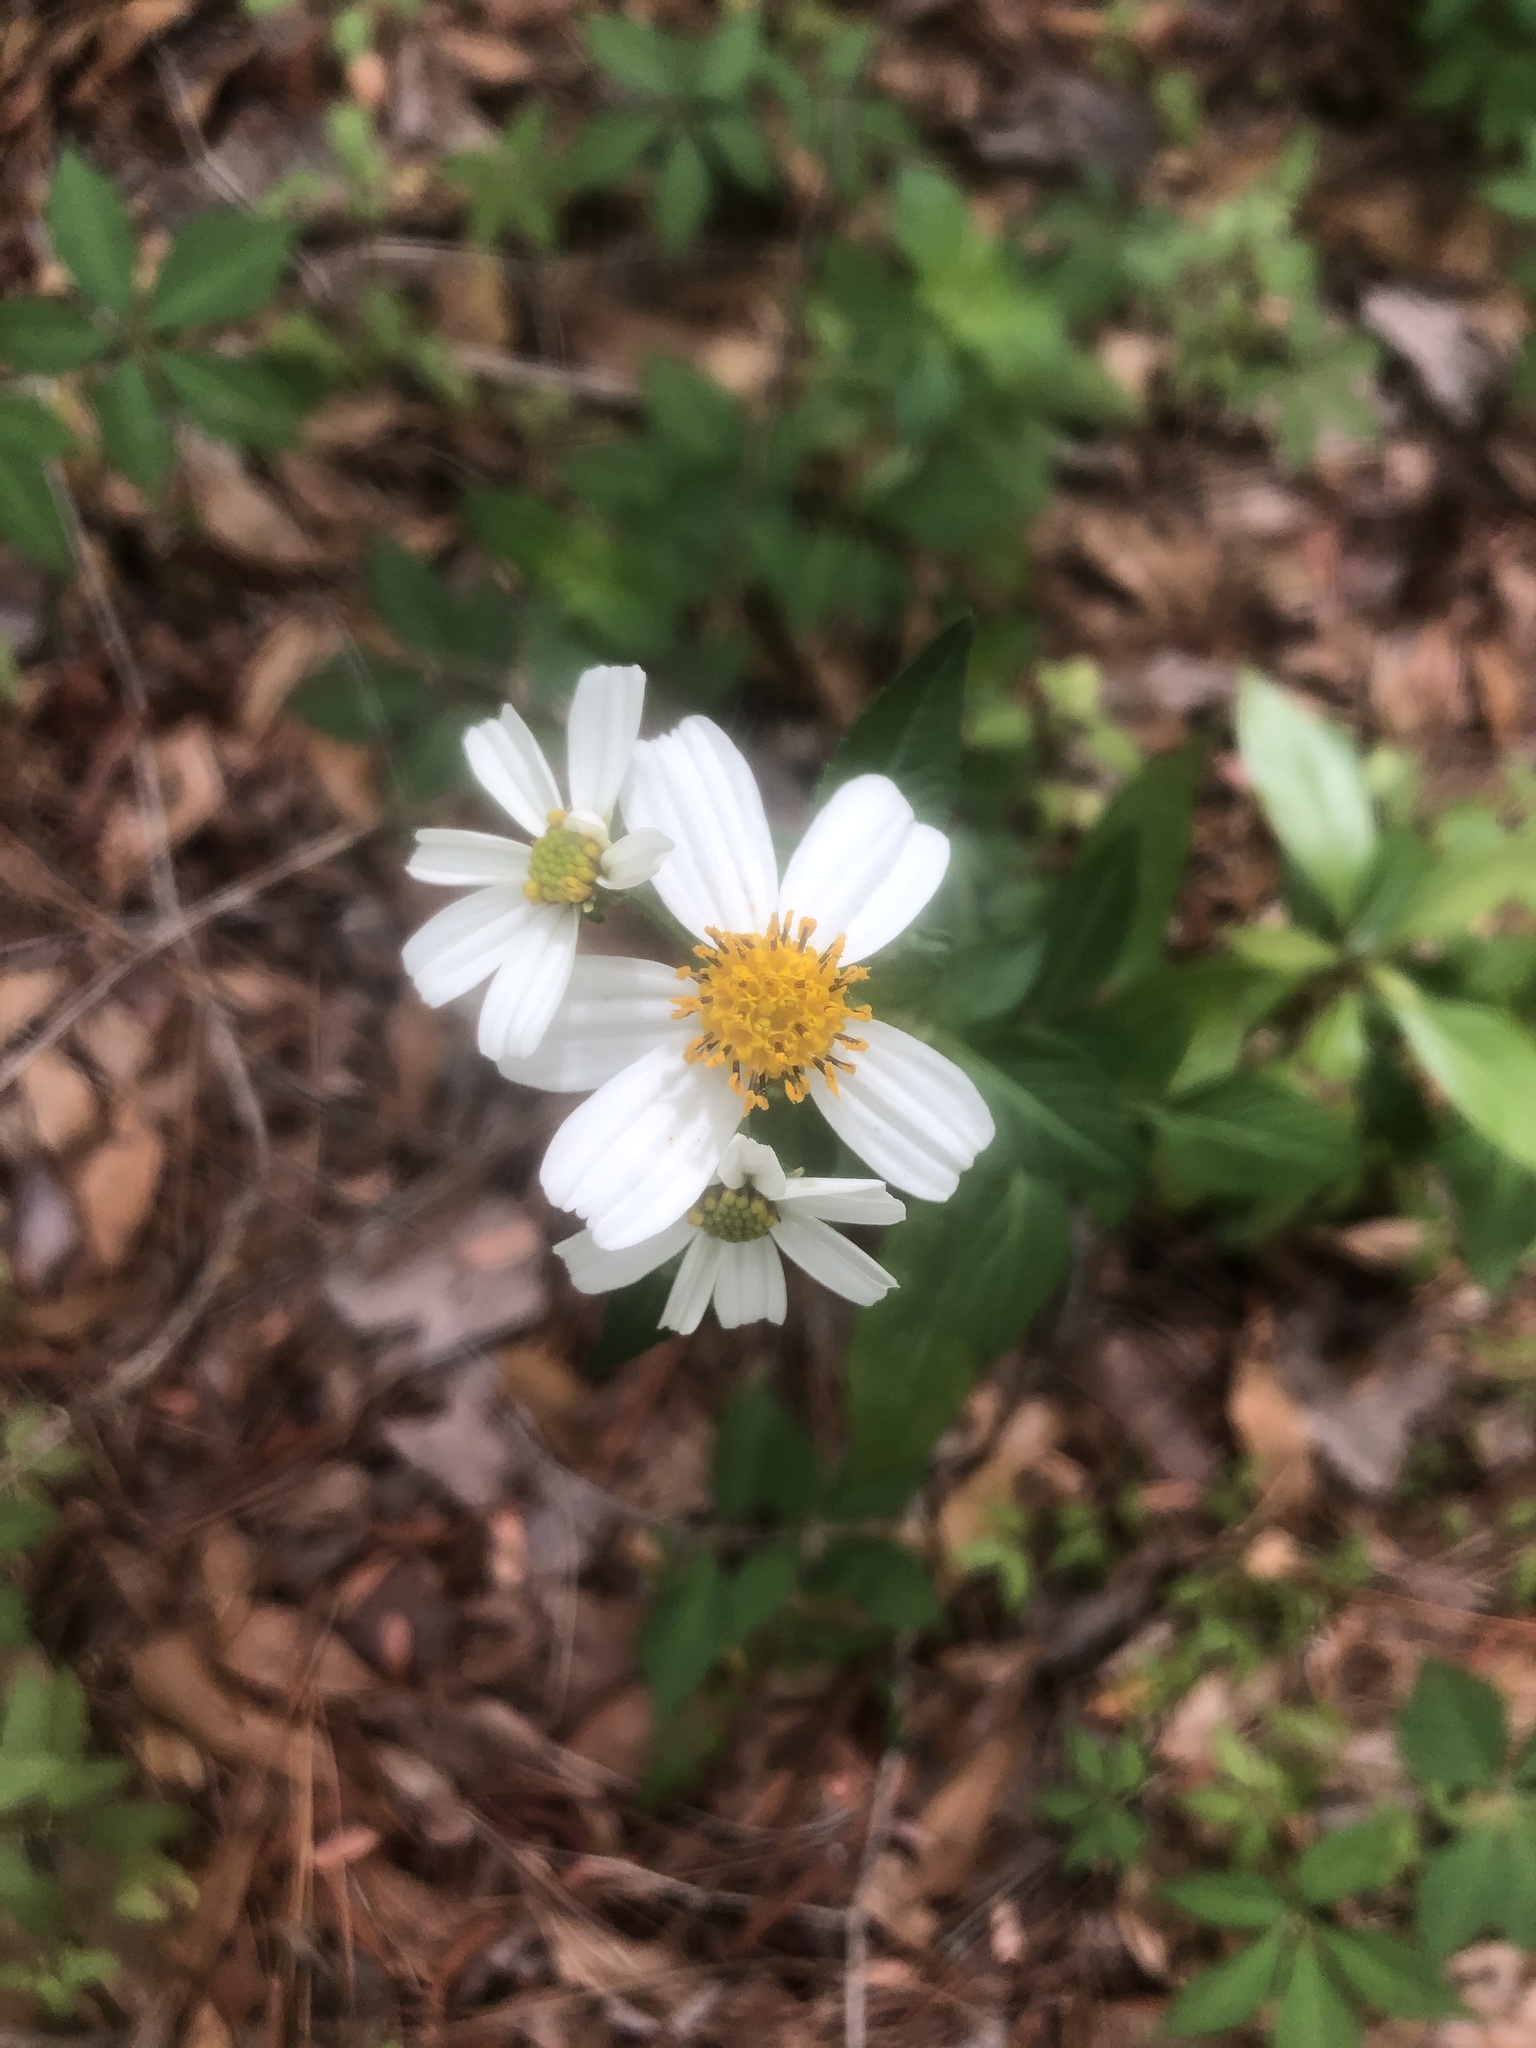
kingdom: Plantae
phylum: Tracheophyta
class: Magnoliopsida
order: Asterales
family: Asteraceae
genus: Bidens
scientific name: Bidens alba
